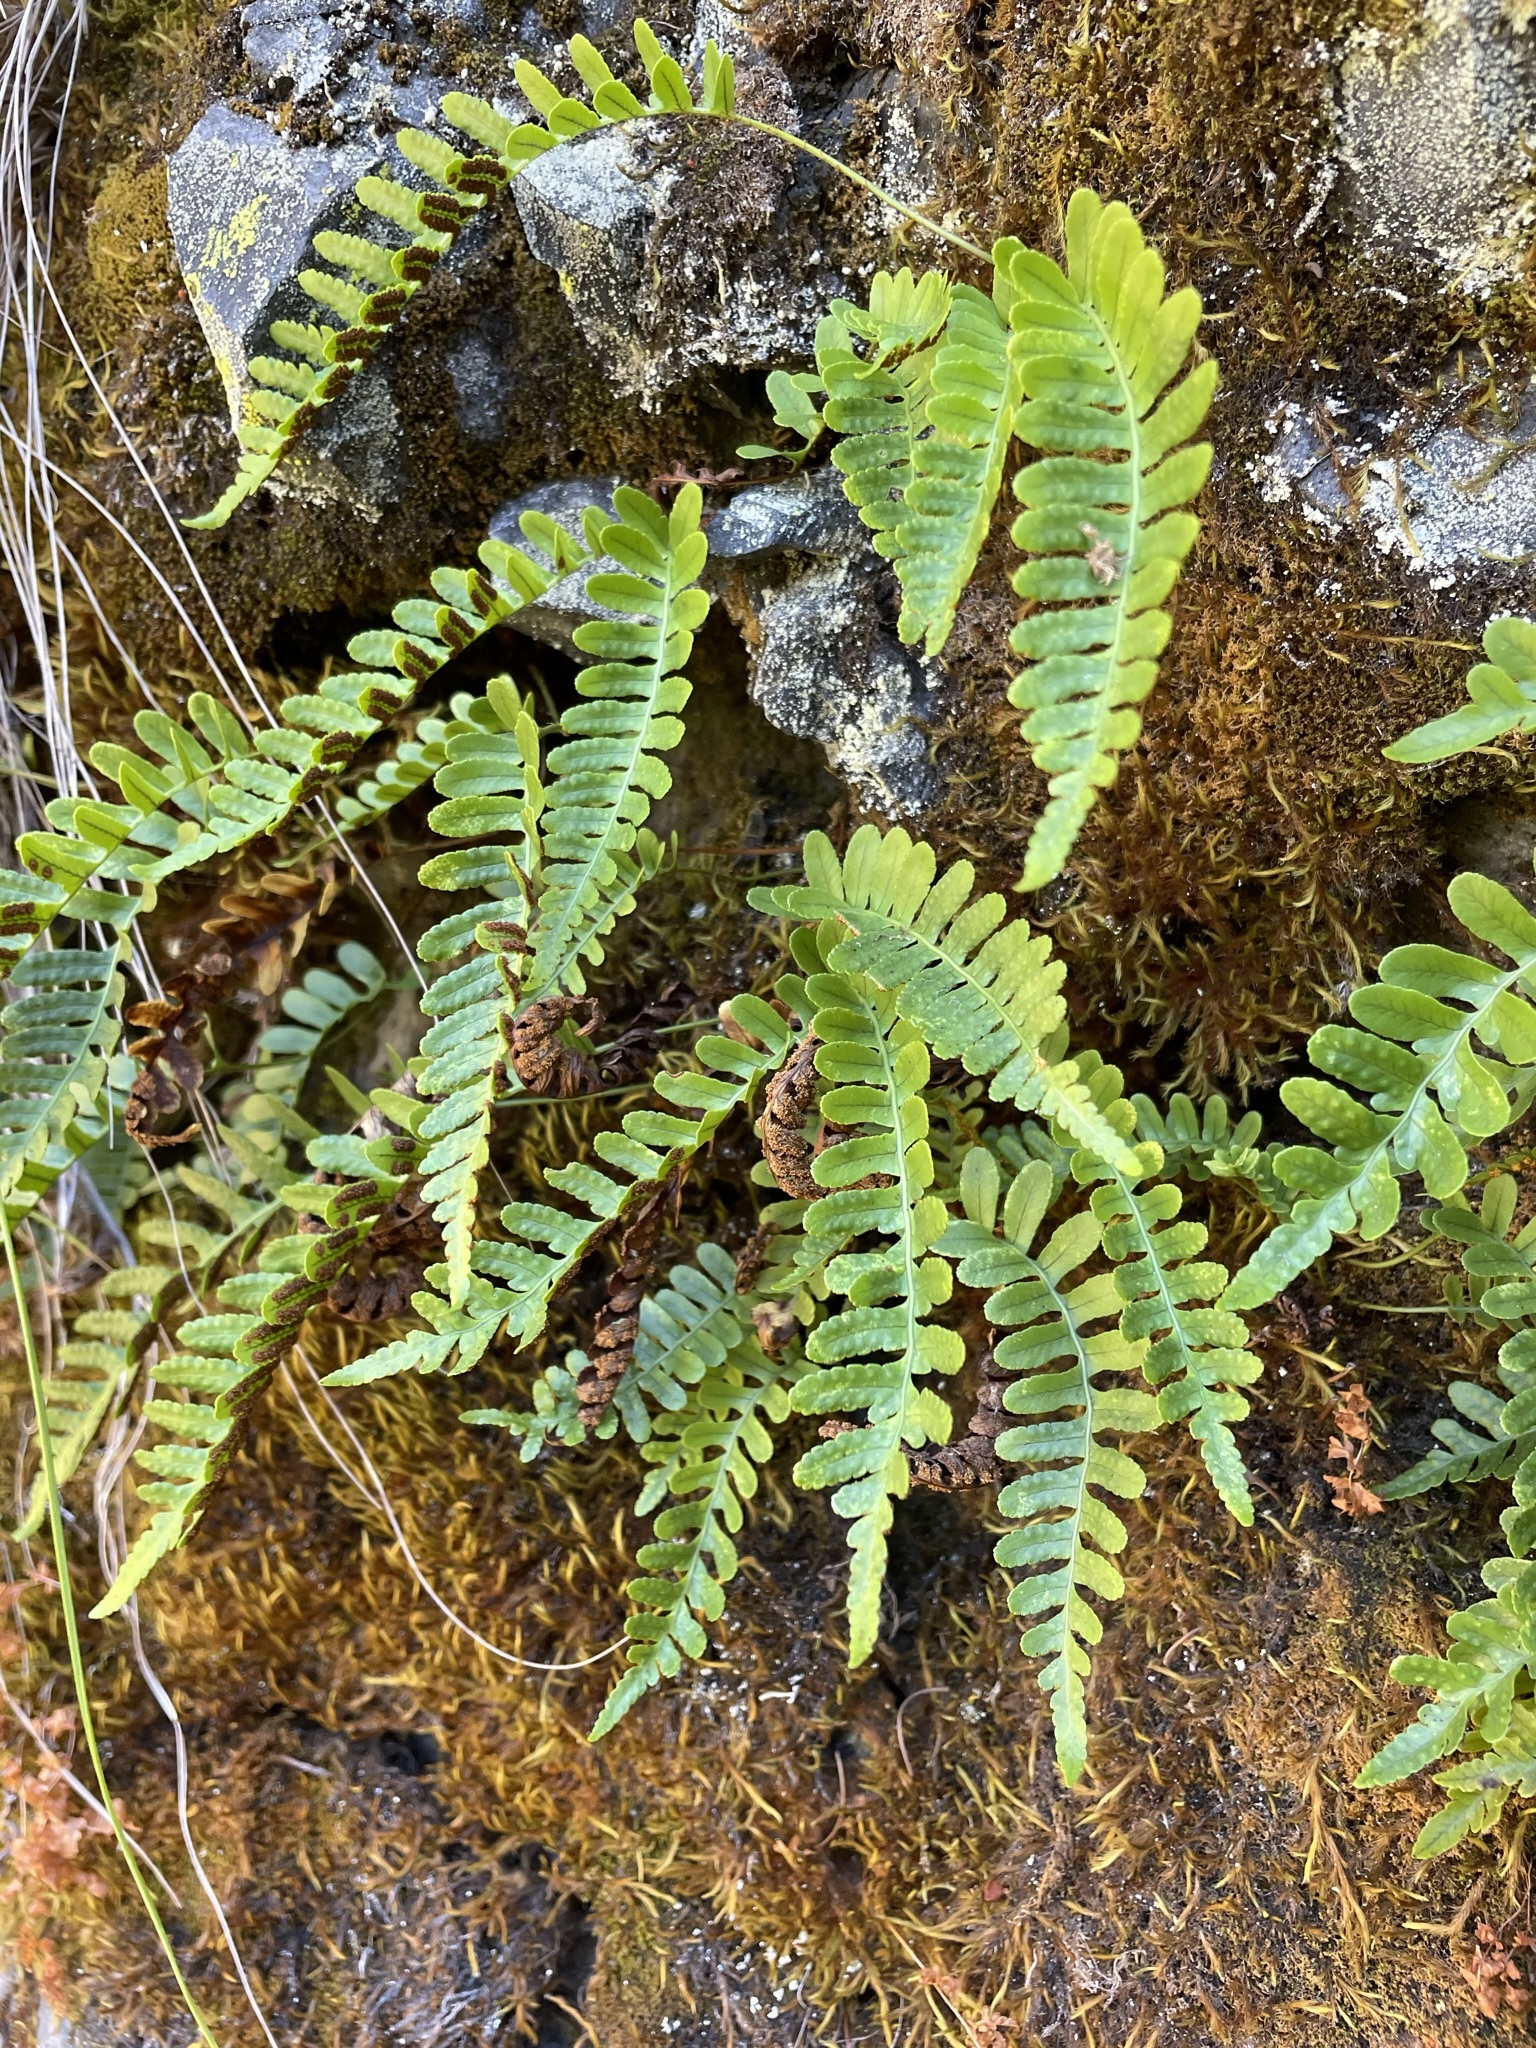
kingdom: Plantae
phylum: Tracheophyta
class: Polypodiopsida
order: Polypodiales
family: Polypodiaceae
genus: Polypodium
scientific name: Polypodium amorphum
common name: Pacific polypody
